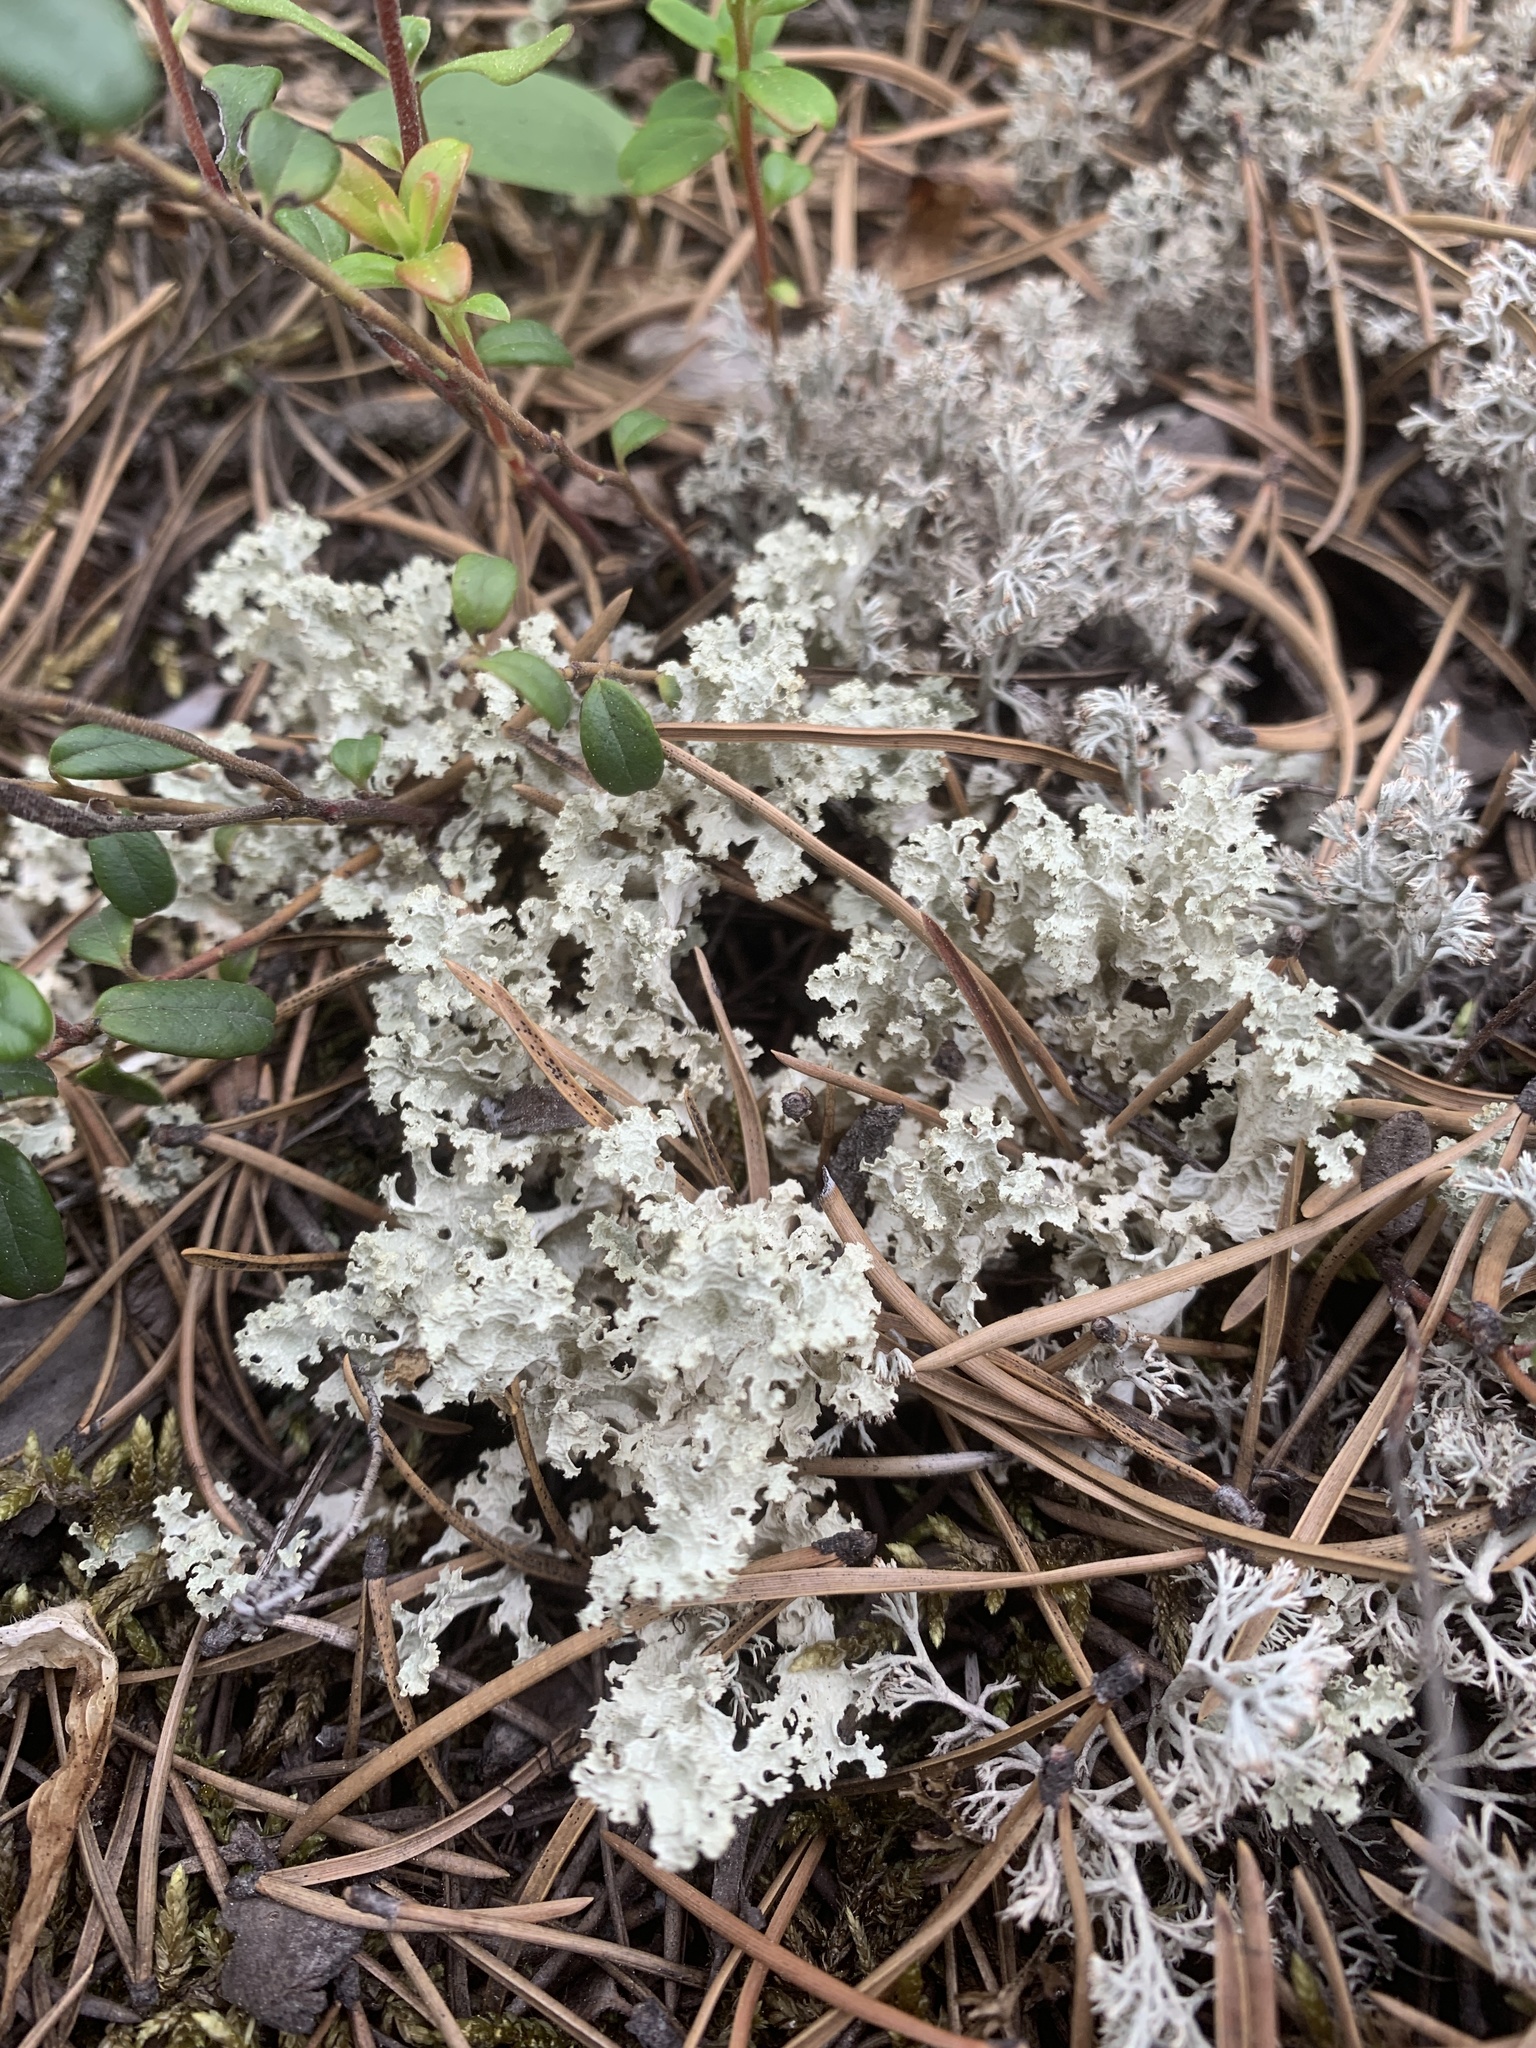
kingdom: Fungi
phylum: Ascomycota
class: Lecanoromycetes
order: Lecanorales
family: Parmeliaceae
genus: Nephromopsis
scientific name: Nephromopsis nivalis
